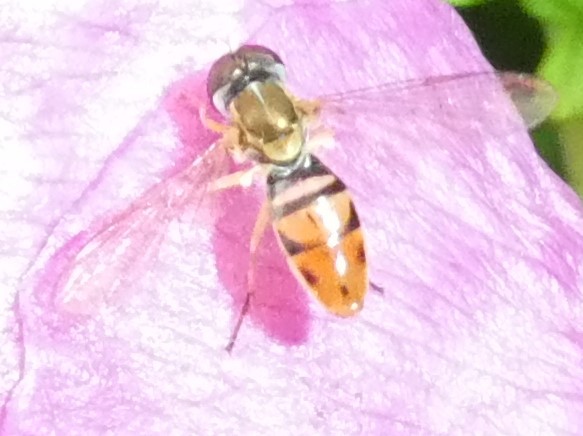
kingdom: Animalia
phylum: Arthropoda
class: Insecta
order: Diptera
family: Syrphidae
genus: Toxomerus
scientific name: Toxomerus marginatus
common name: Syrphid fly
